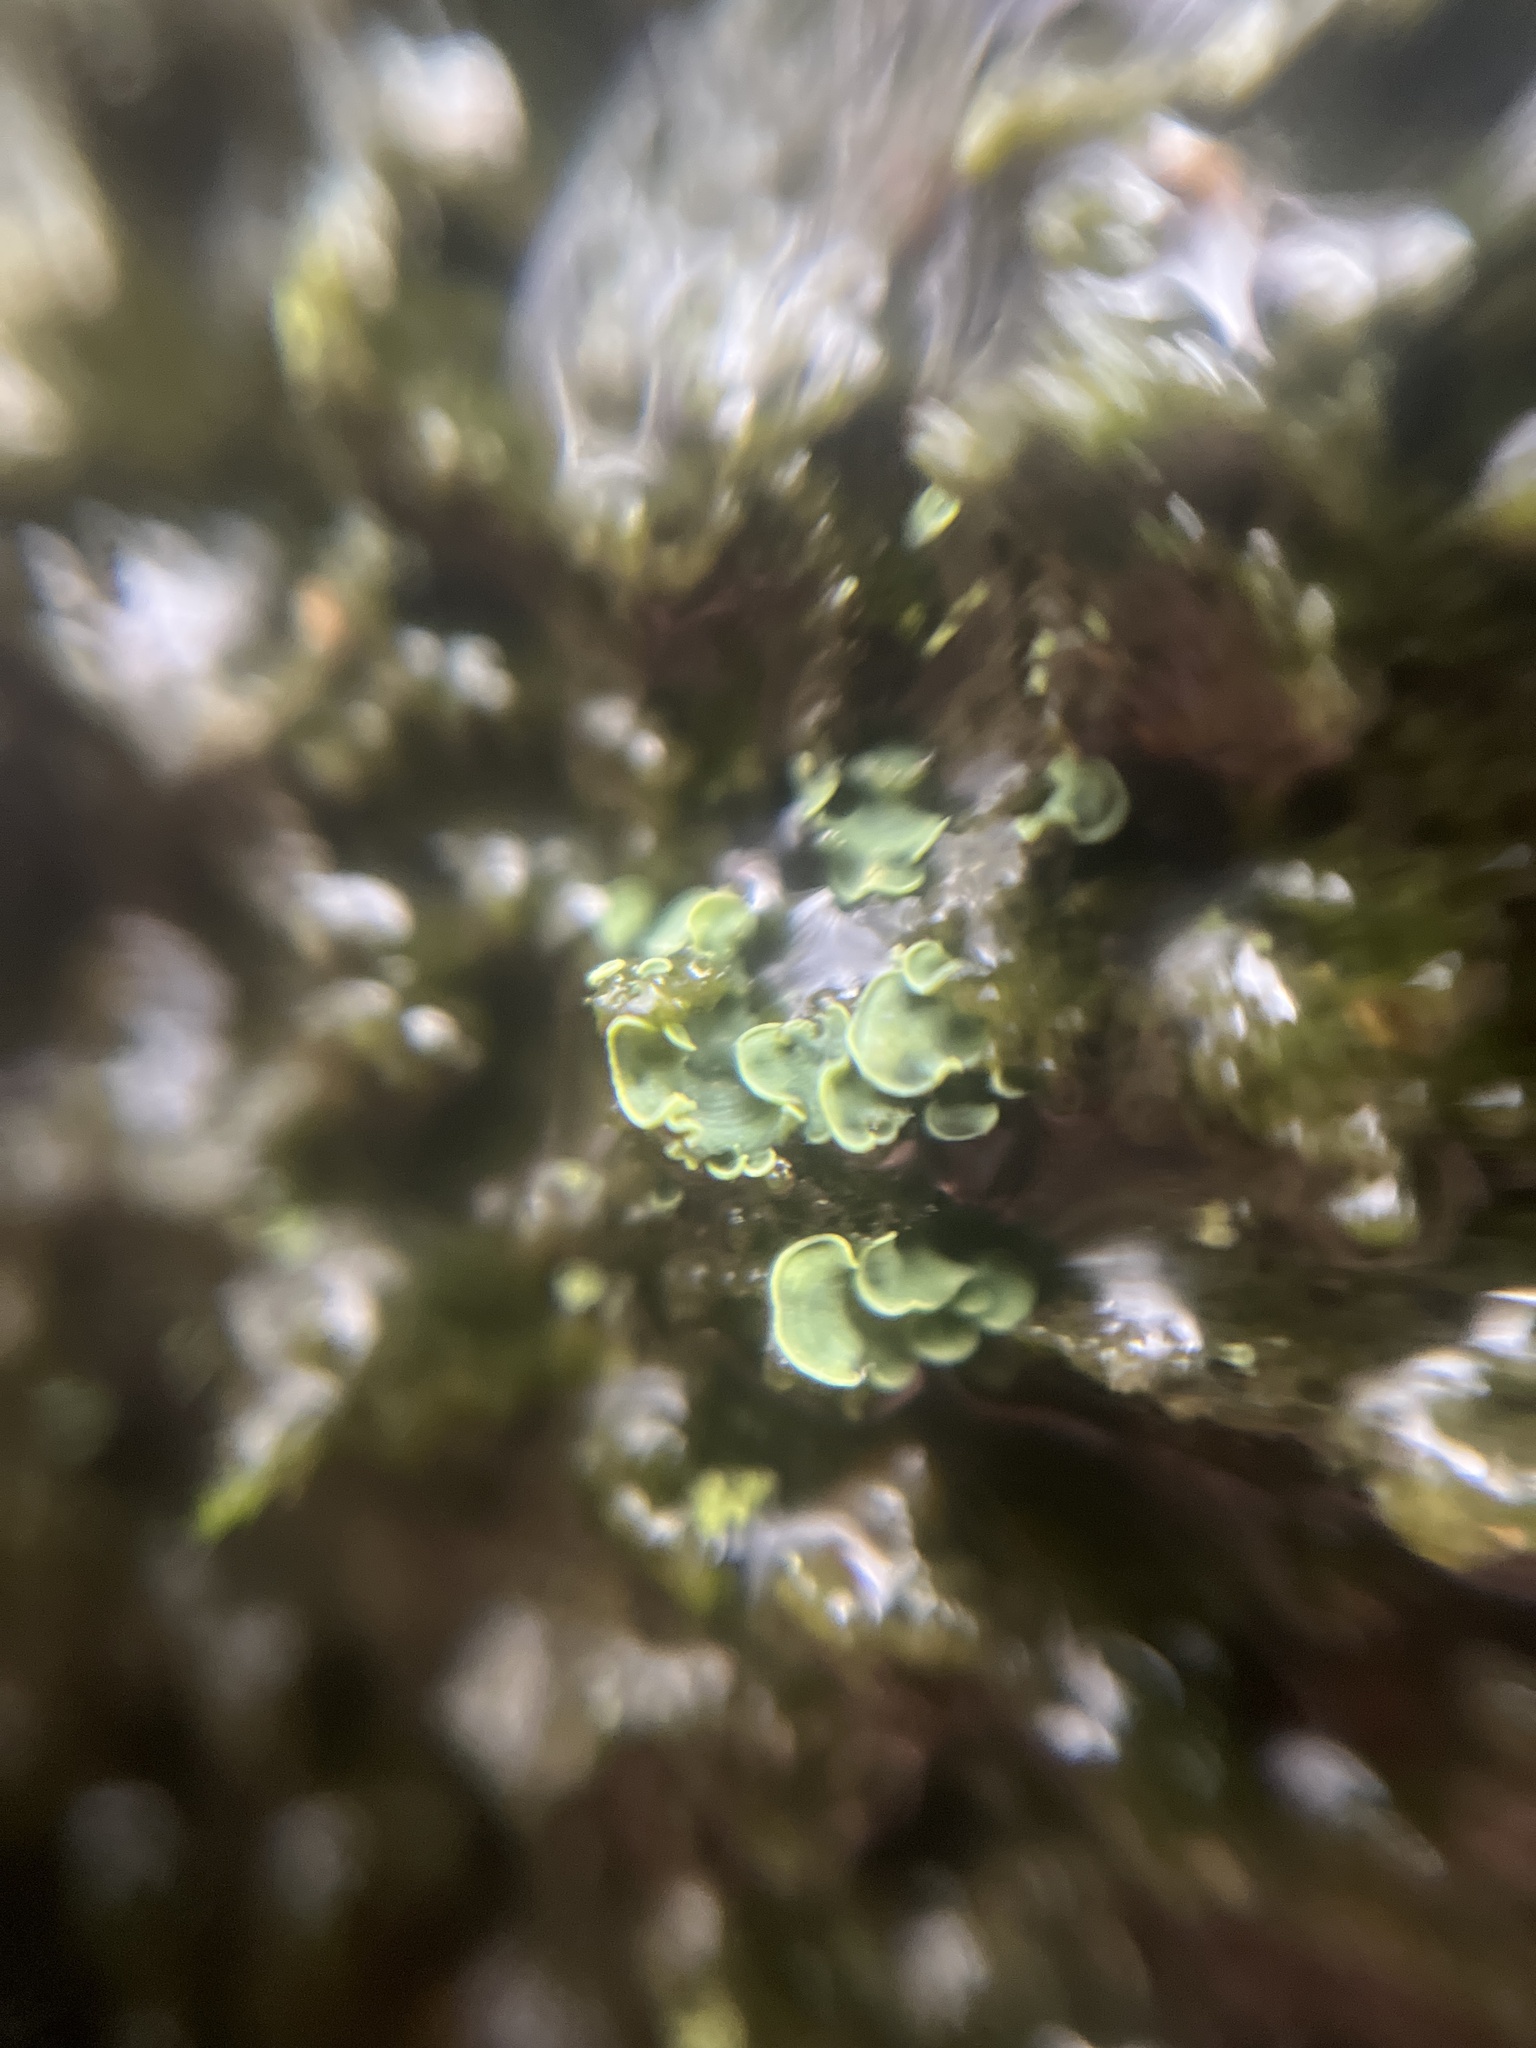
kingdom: Fungi
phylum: Ascomycota
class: Eurotiomycetes
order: Verrucariales
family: Verrucariaceae
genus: Normandina
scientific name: Normandina pulchella
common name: Elf ears lichen
